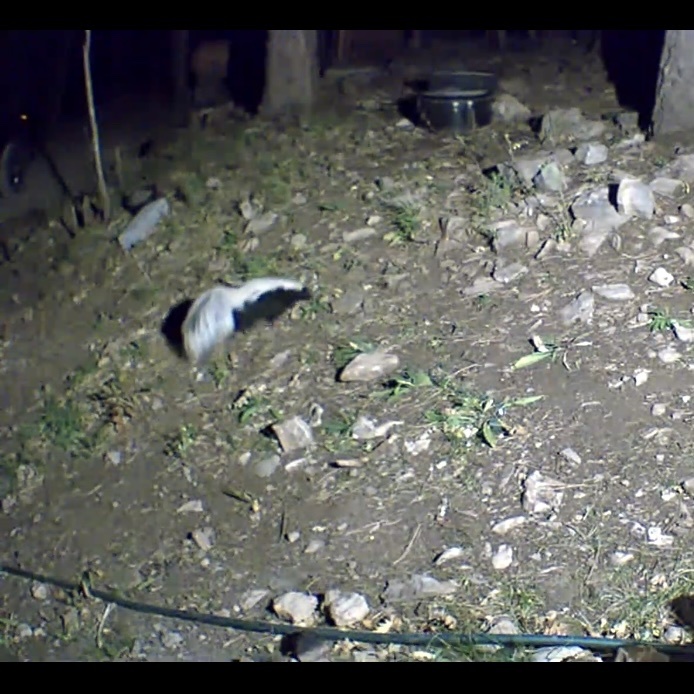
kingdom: Animalia
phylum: Chordata
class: Mammalia
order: Carnivora
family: Mephitidae
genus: Mephitis
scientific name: Mephitis mephitis
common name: Striped skunk
